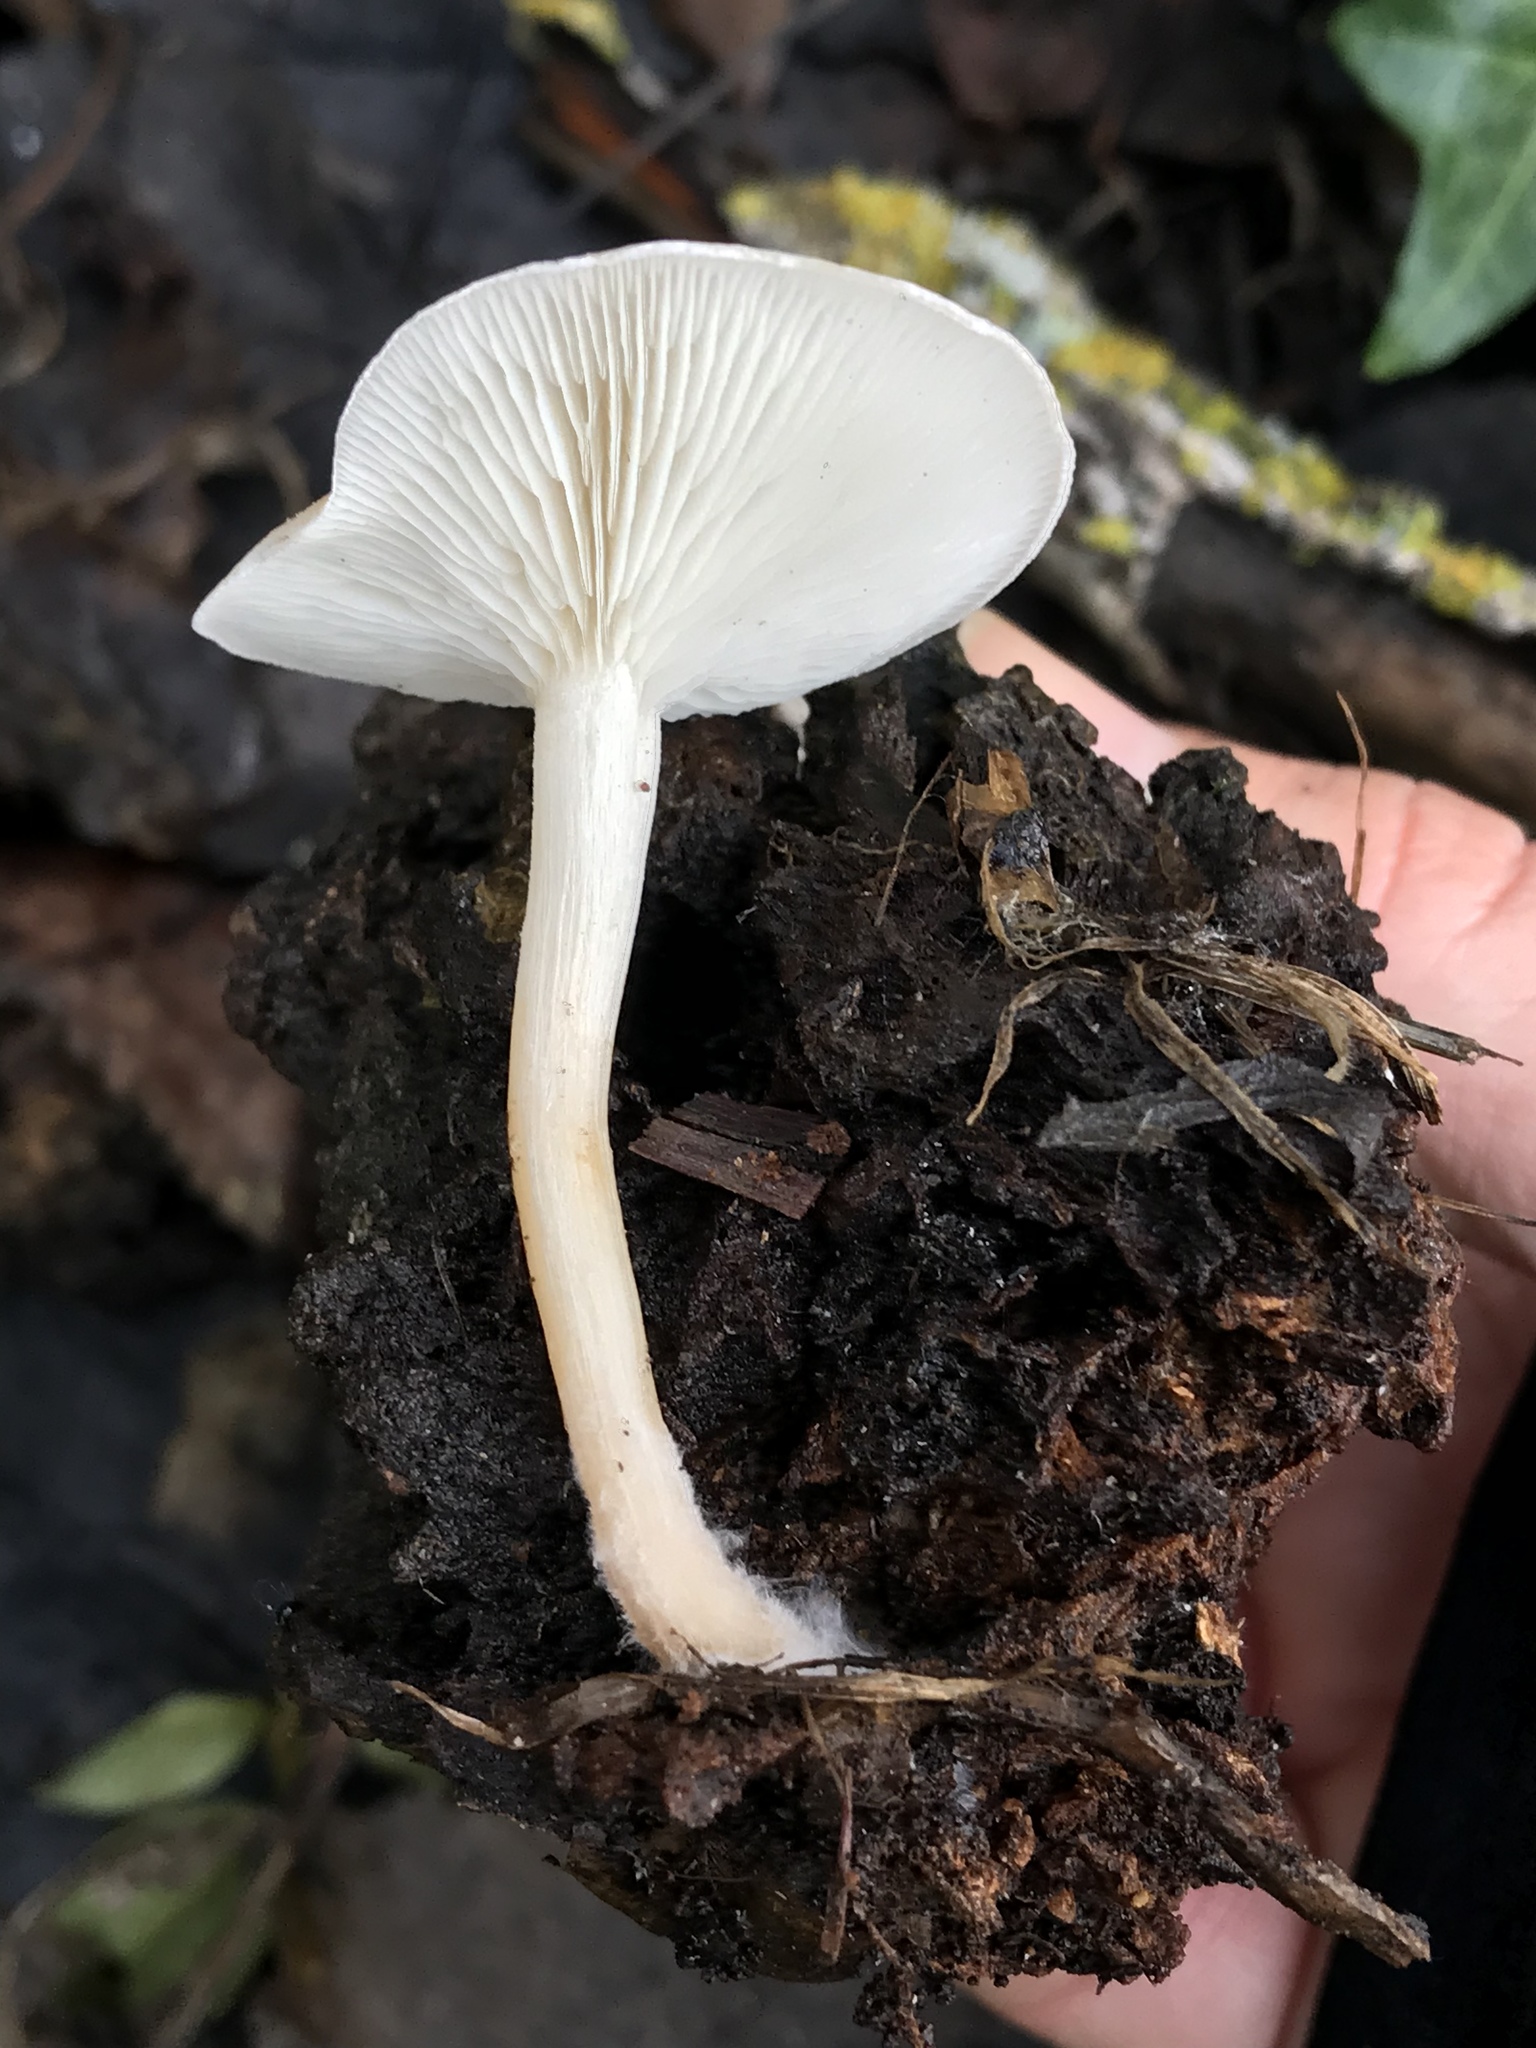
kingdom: Fungi
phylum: Basidiomycota
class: Agaricomycetes
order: Agaricales
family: Tricholomataceae
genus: Clitocybe
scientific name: Clitocybe fragrans
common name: Fragrant funnel
